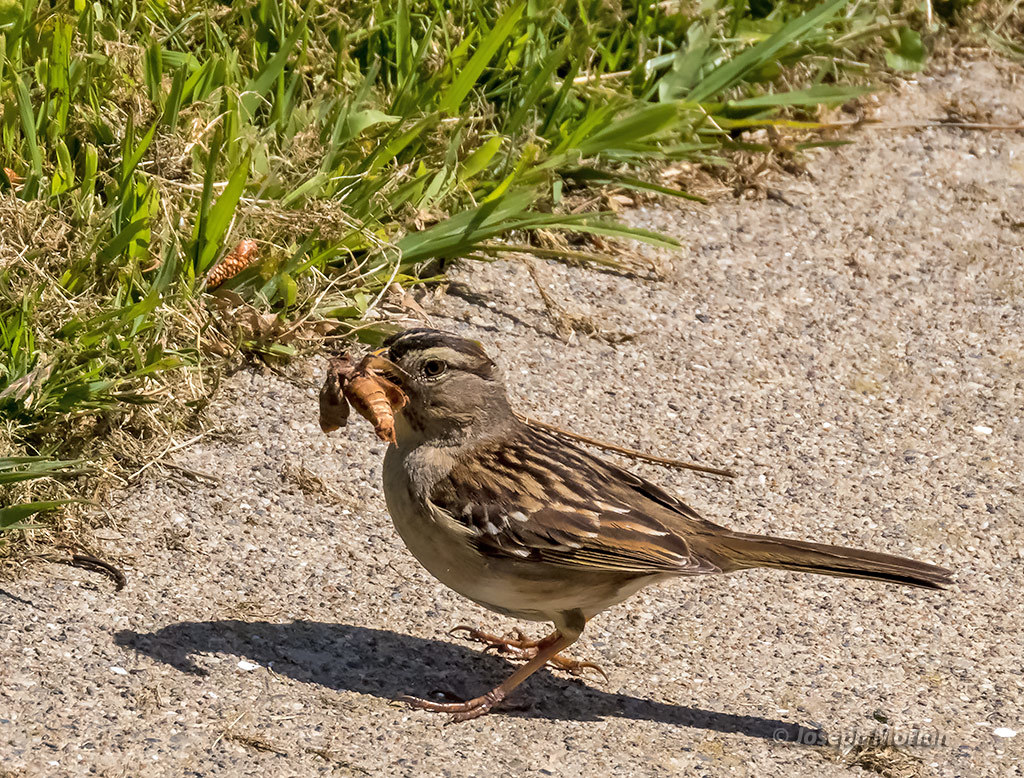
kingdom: Animalia
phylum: Chordata
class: Aves
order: Passeriformes
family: Passerellidae
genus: Zonotrichia
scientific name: Zonotrichia leucophrys
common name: White-crowned sparrow
